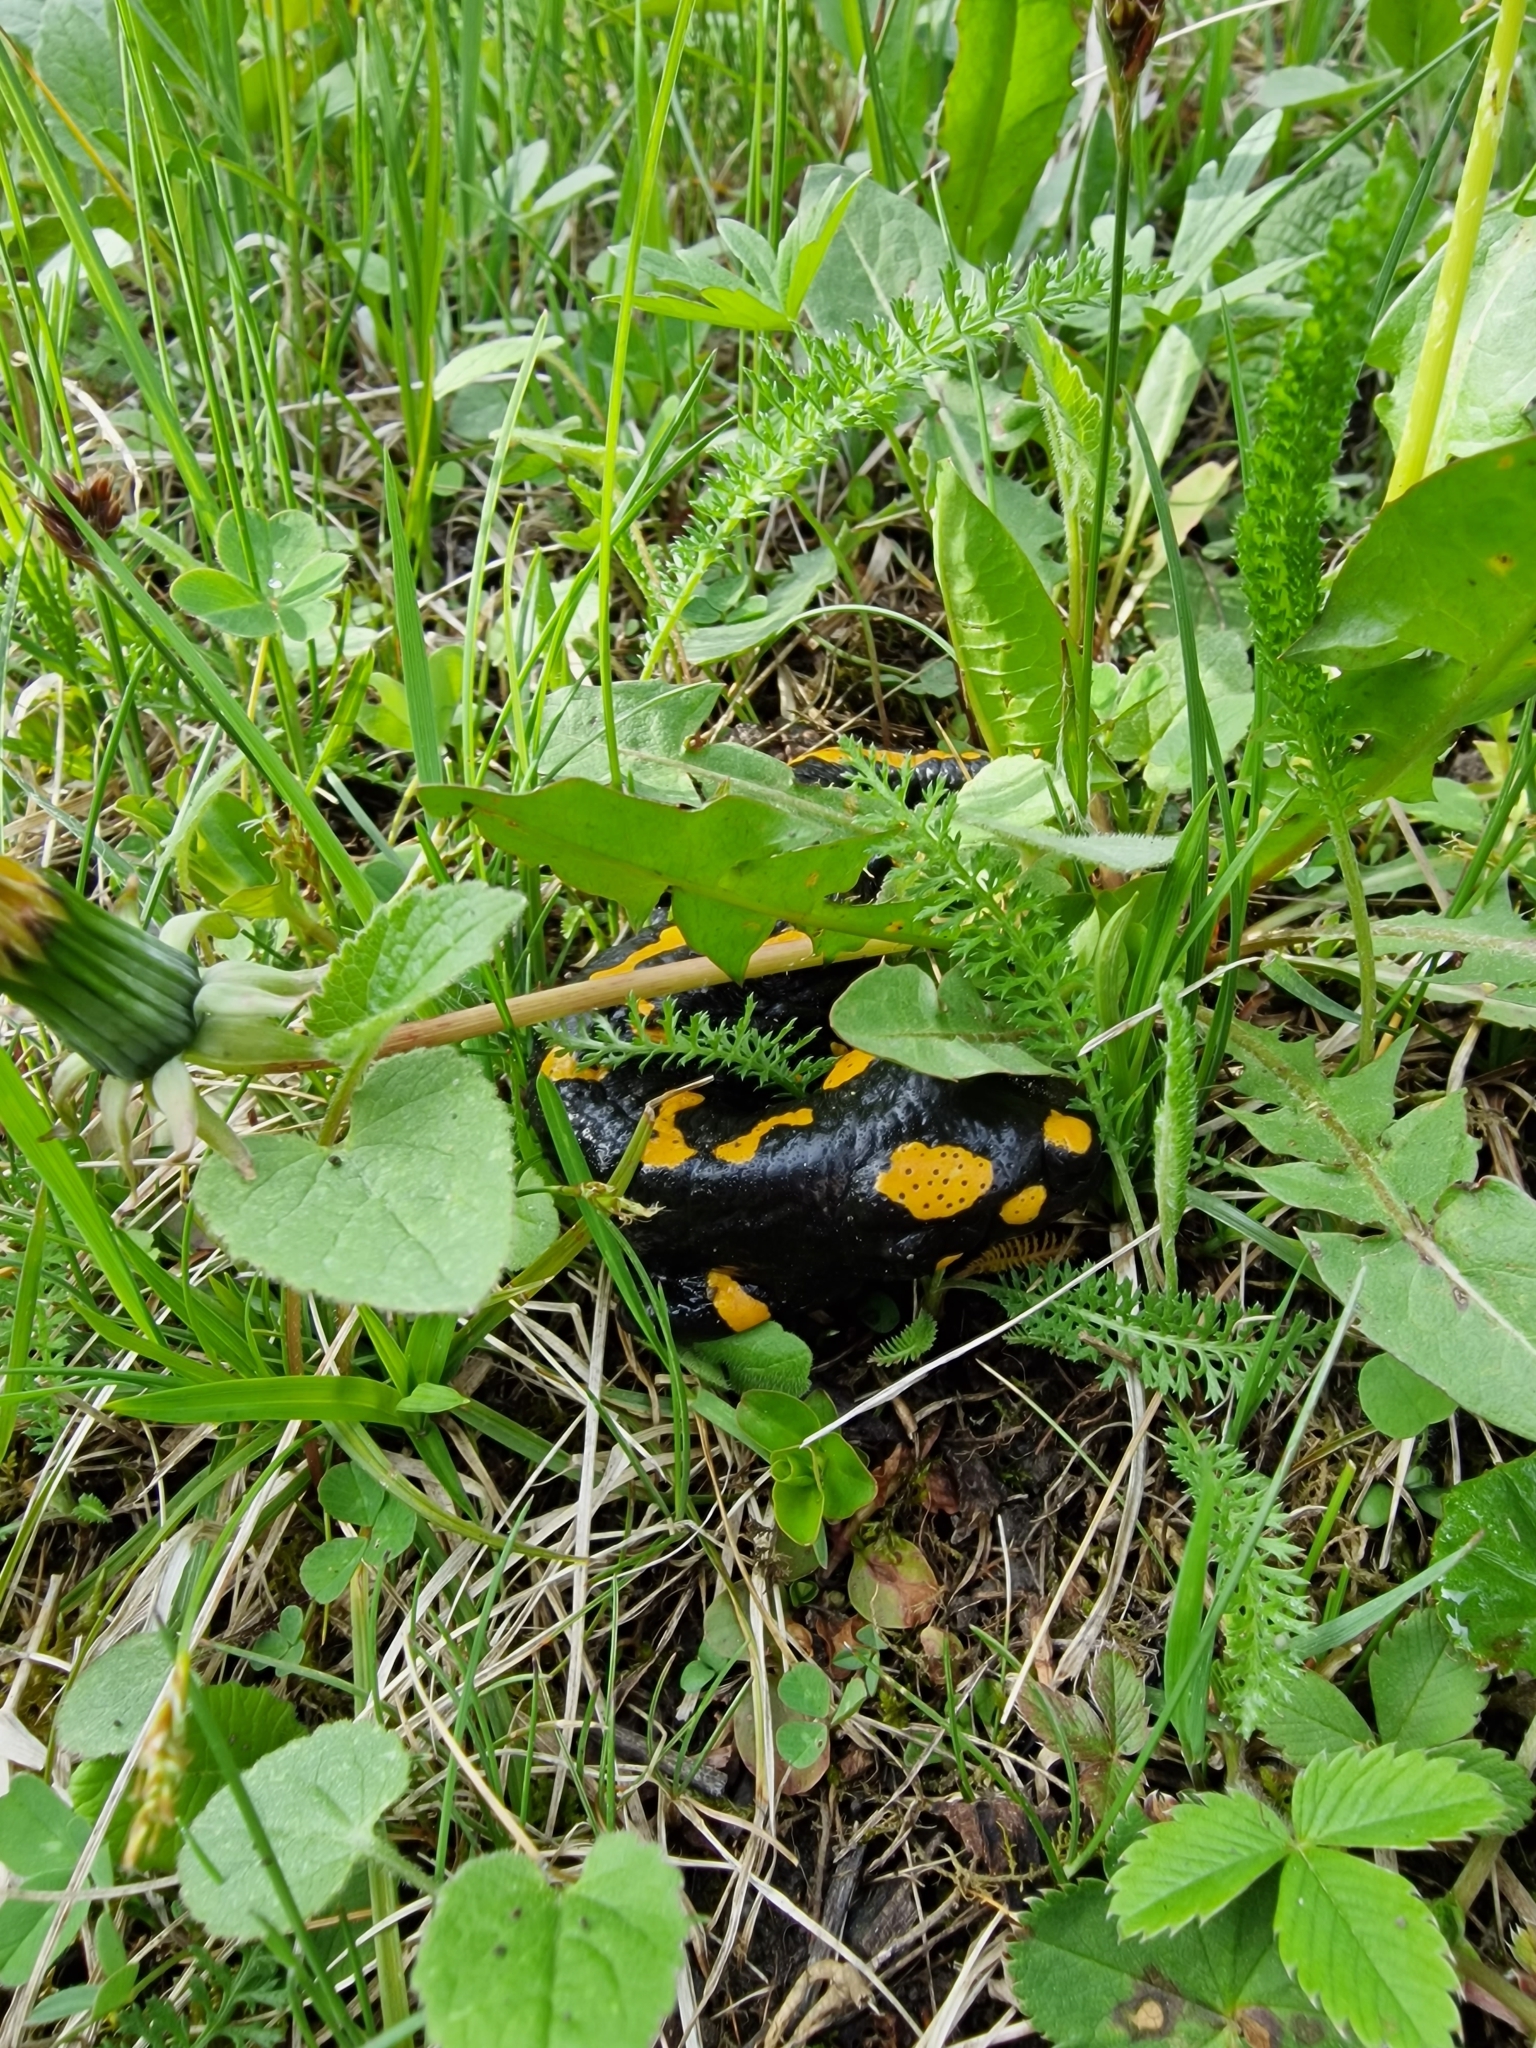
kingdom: Animalia
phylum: Chordata
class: Amphibia
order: Caudata
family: Salamandridae
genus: Salamandra
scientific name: Salamandra salamandra
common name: Fire salamander
